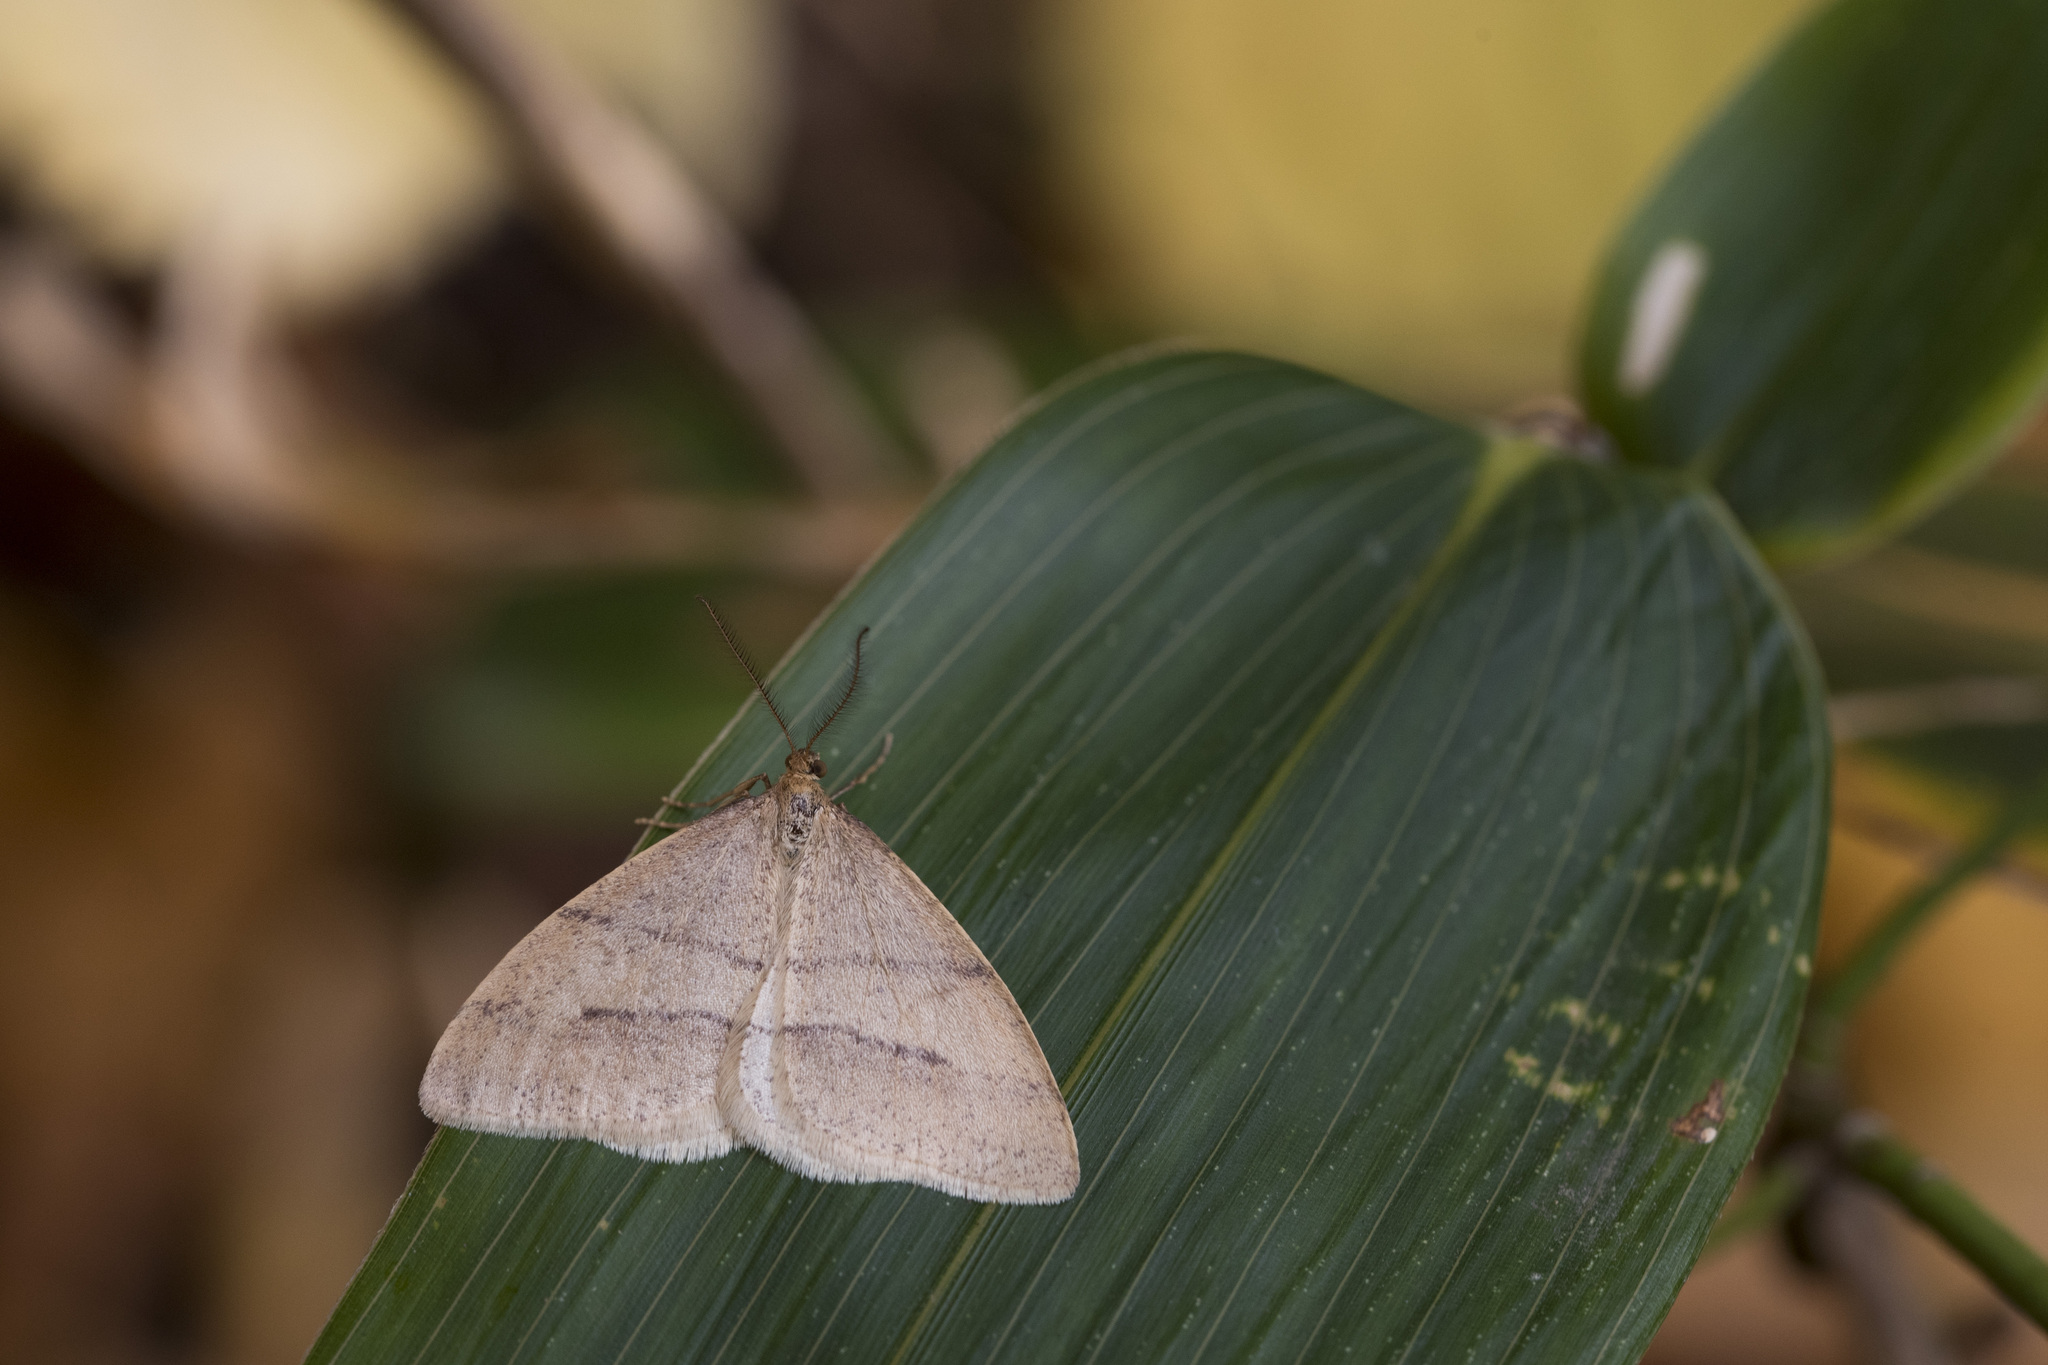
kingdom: Animalia
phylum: Arthropoda
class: Insecta
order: Lepidoptera
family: Geometridae
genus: Pachyerannis
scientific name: Pachyerannis obliquaria
